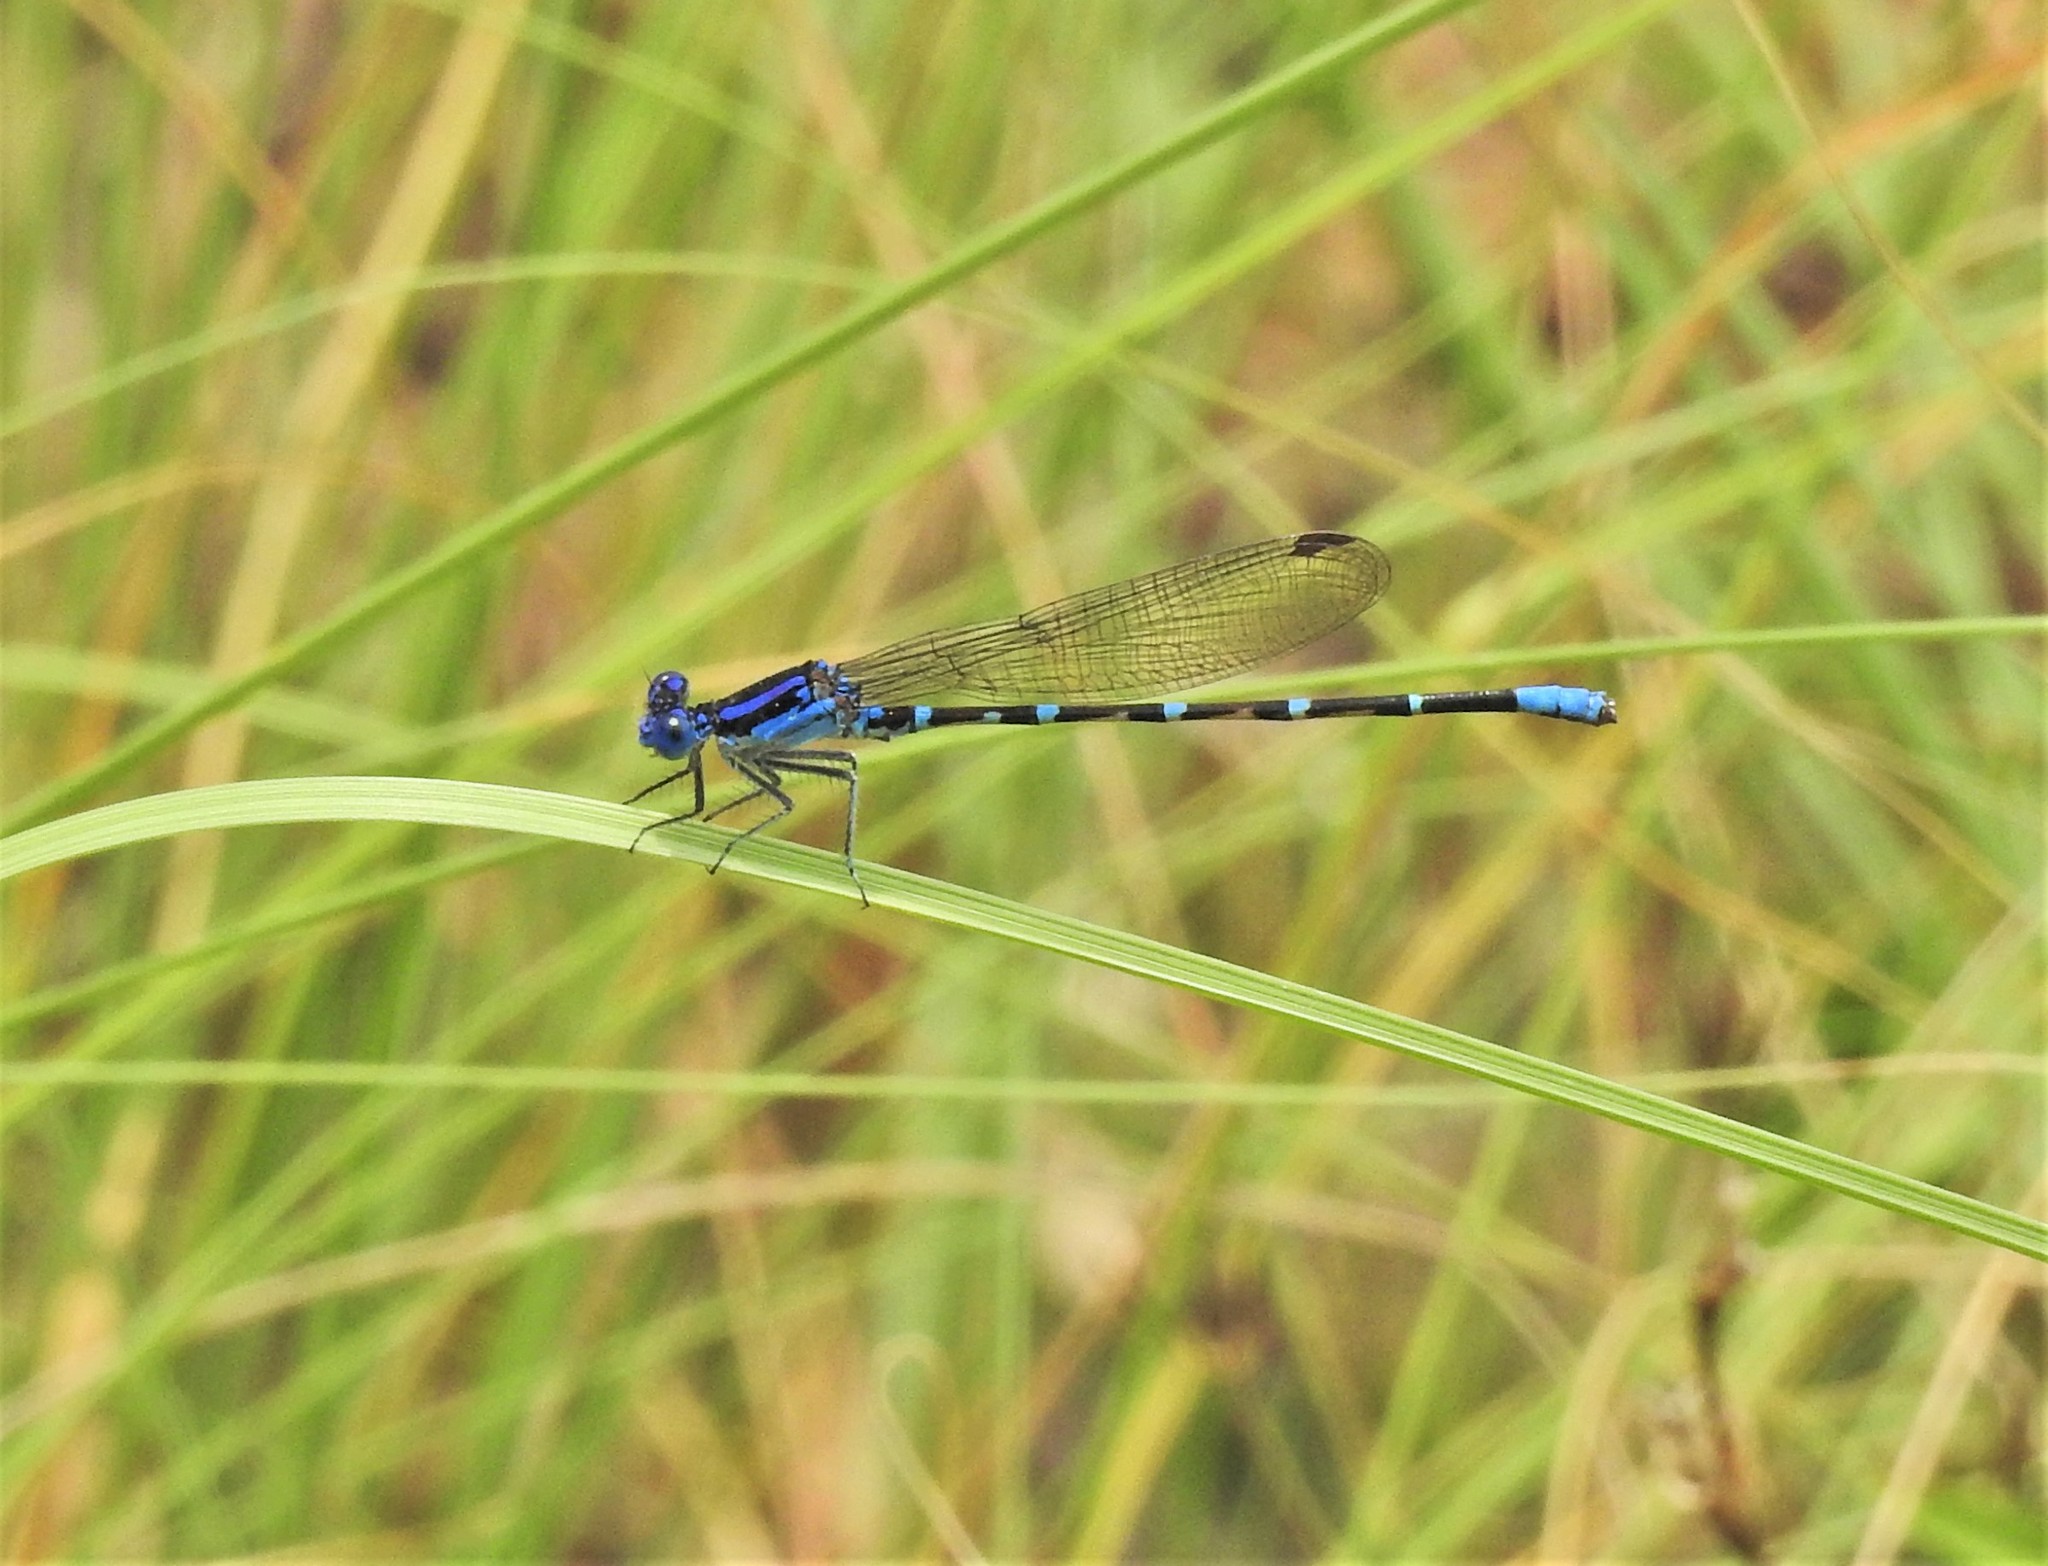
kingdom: Animalia
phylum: Arthropoda
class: Insecta
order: Odonata
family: Coenagrionidae
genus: Argia
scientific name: Argia sedula
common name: Blue-ringed dancer
